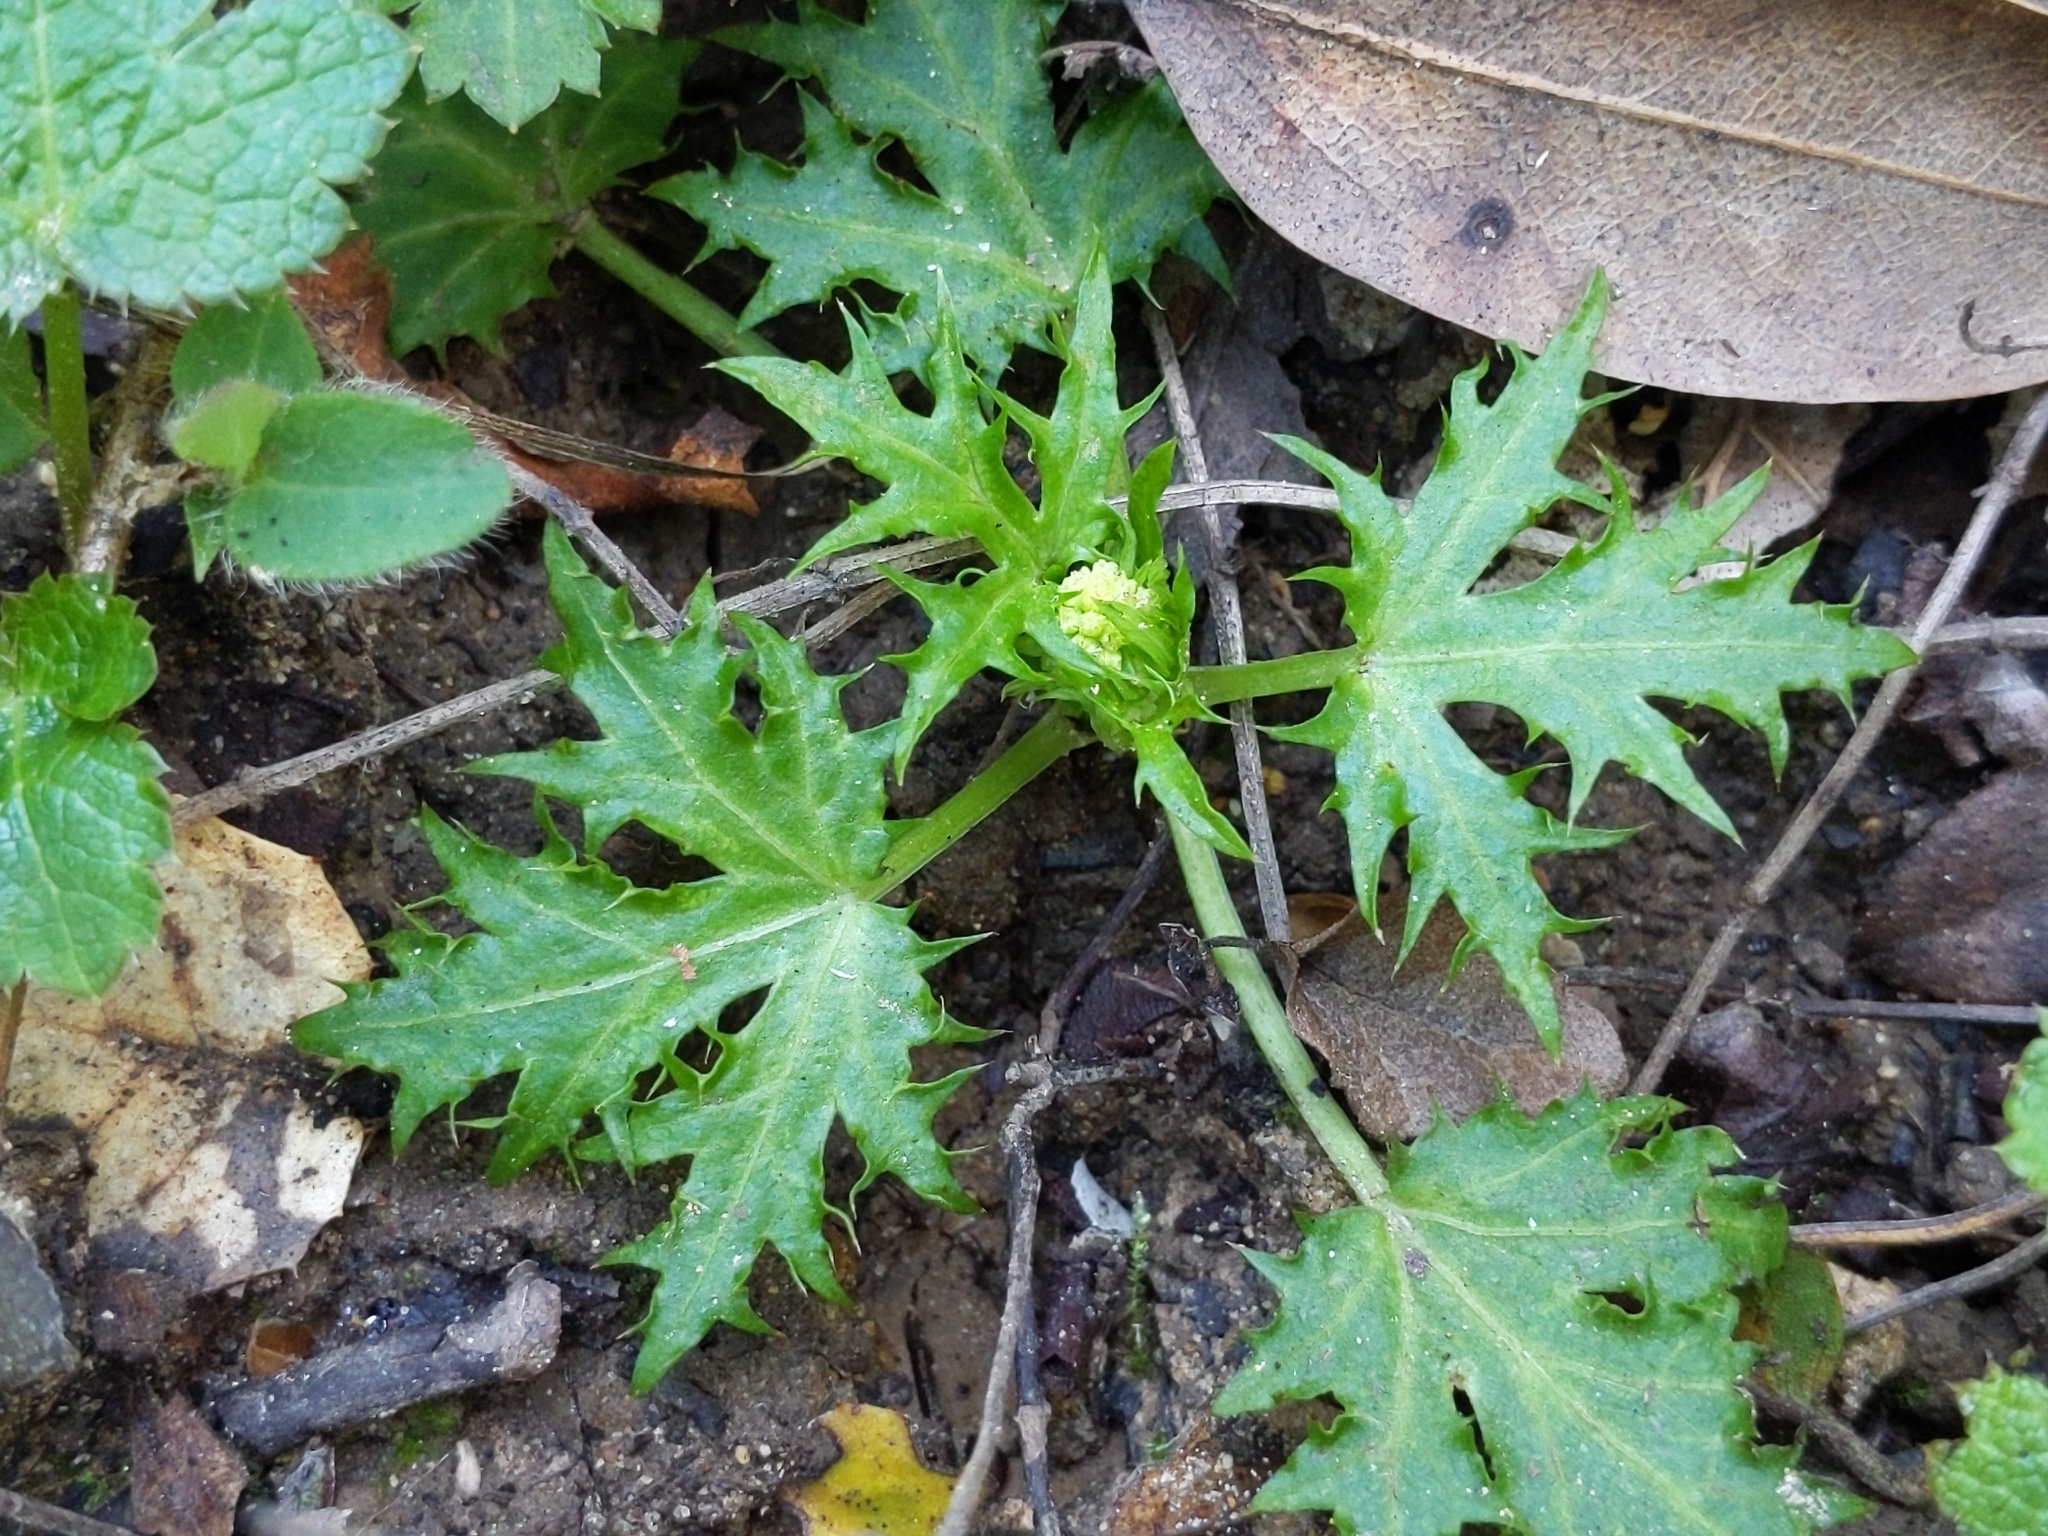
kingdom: Plantae
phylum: Tracheophyta
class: Magnoliopsida
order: Apiales
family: Apiaceae
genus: Sanicula
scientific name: Sanicula laciniata
